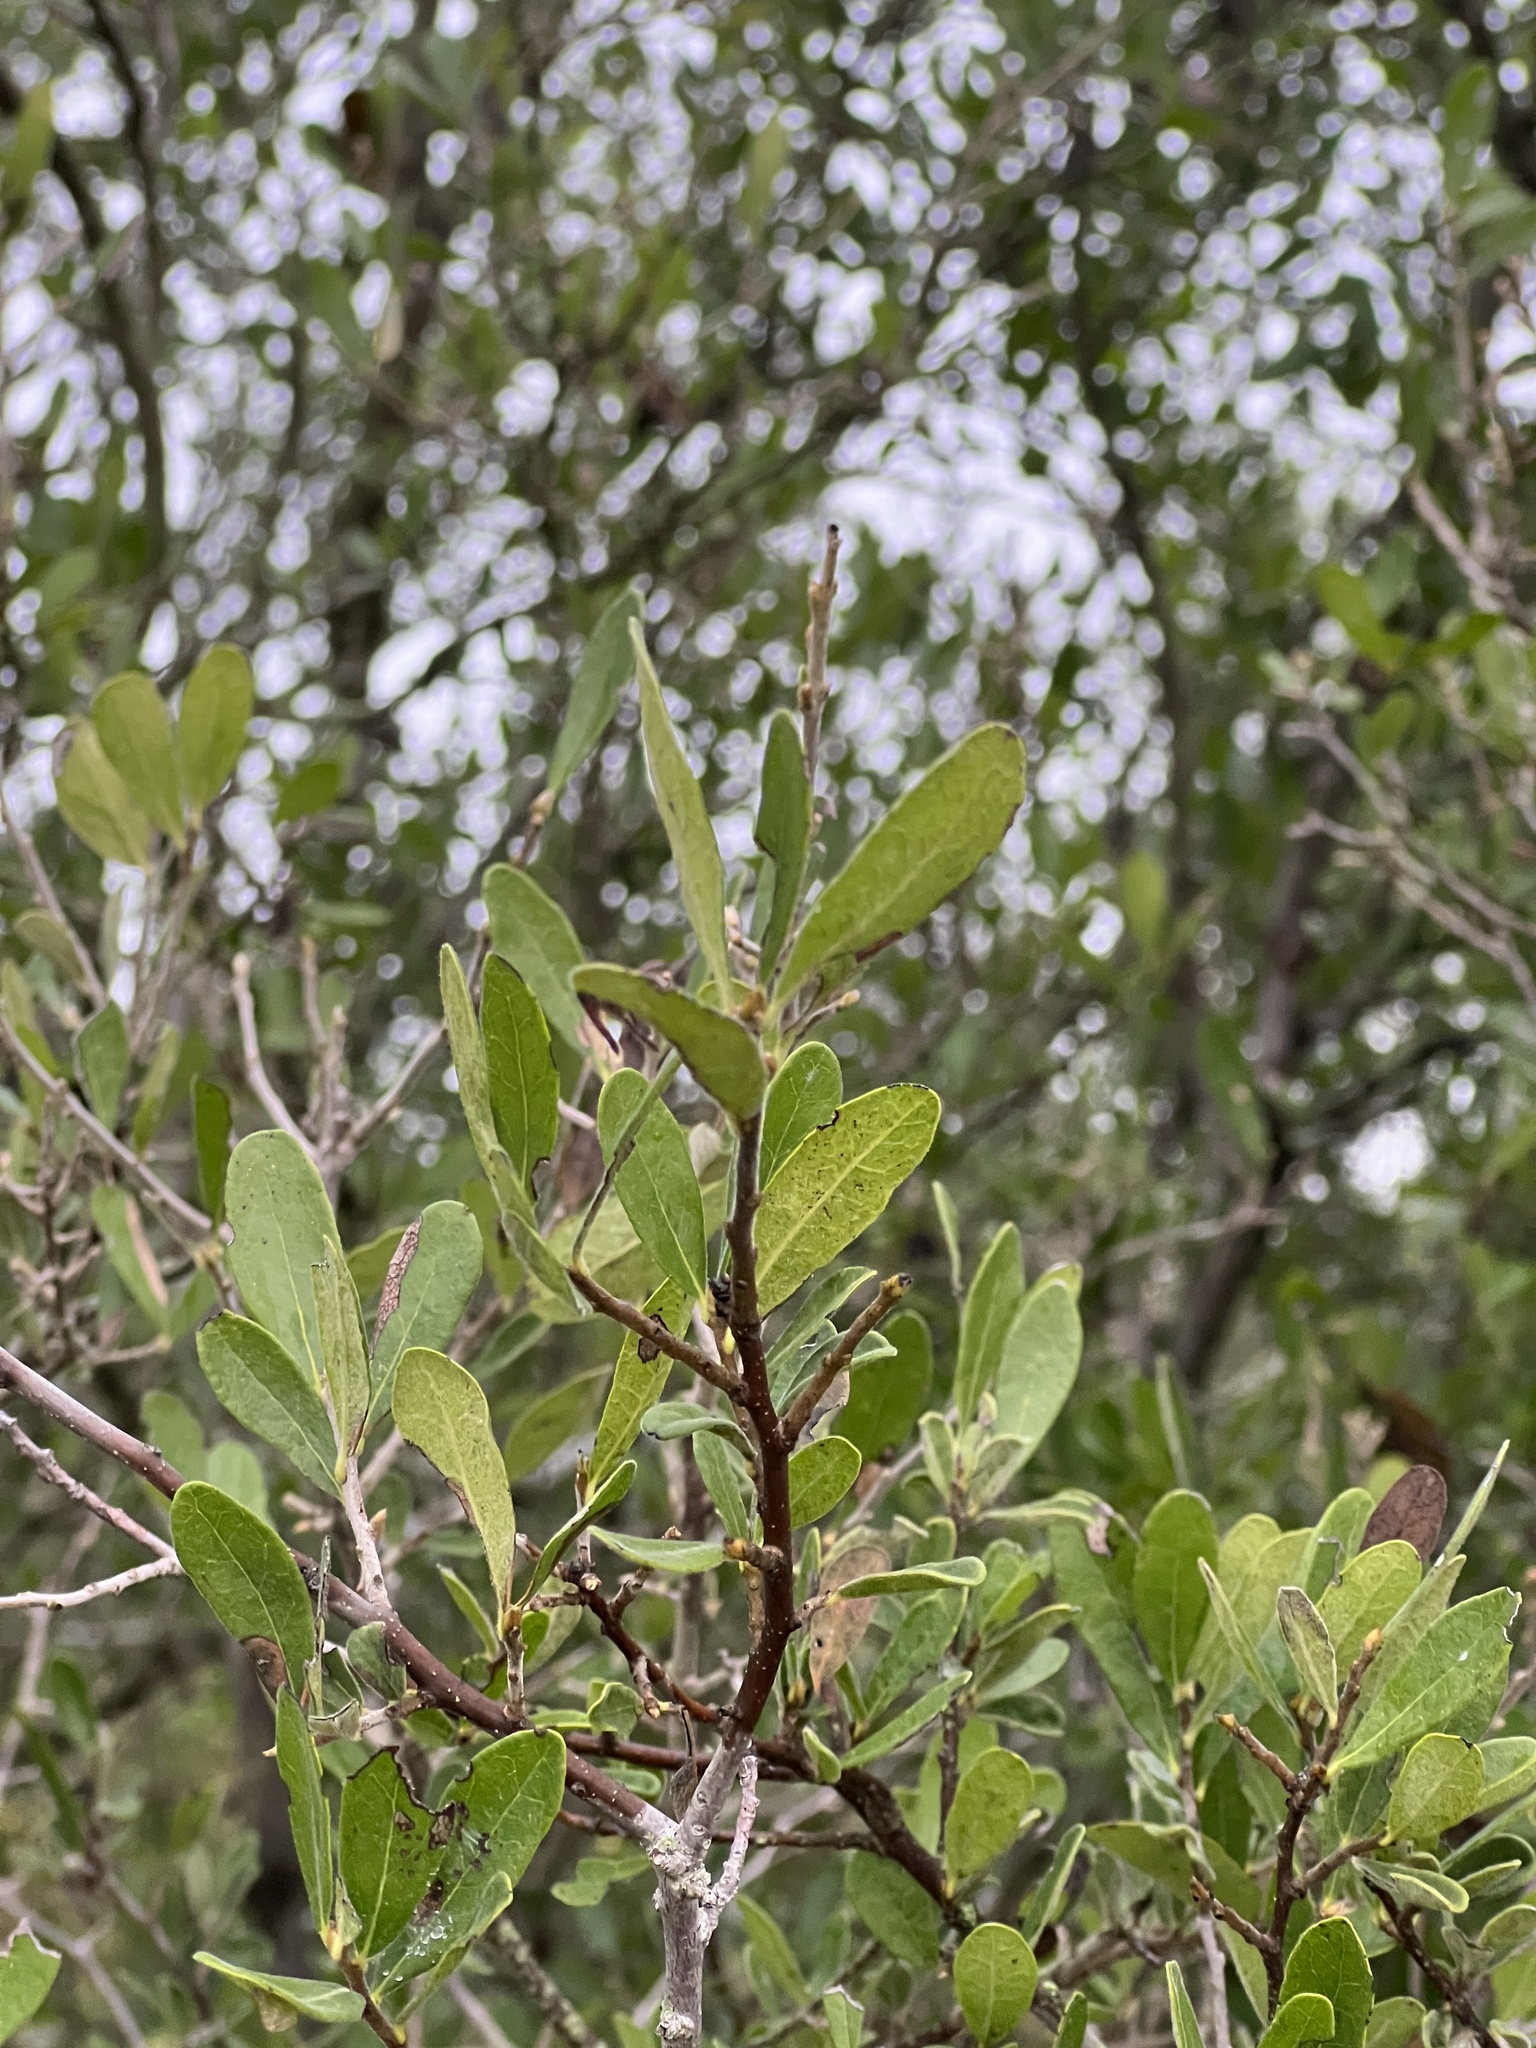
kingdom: Plantae
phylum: Tracheophyta
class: Magnoliopsida
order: Ericales
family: Ebenaceae
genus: Diospyros
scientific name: Diospyros texana
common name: Texas persimmon
